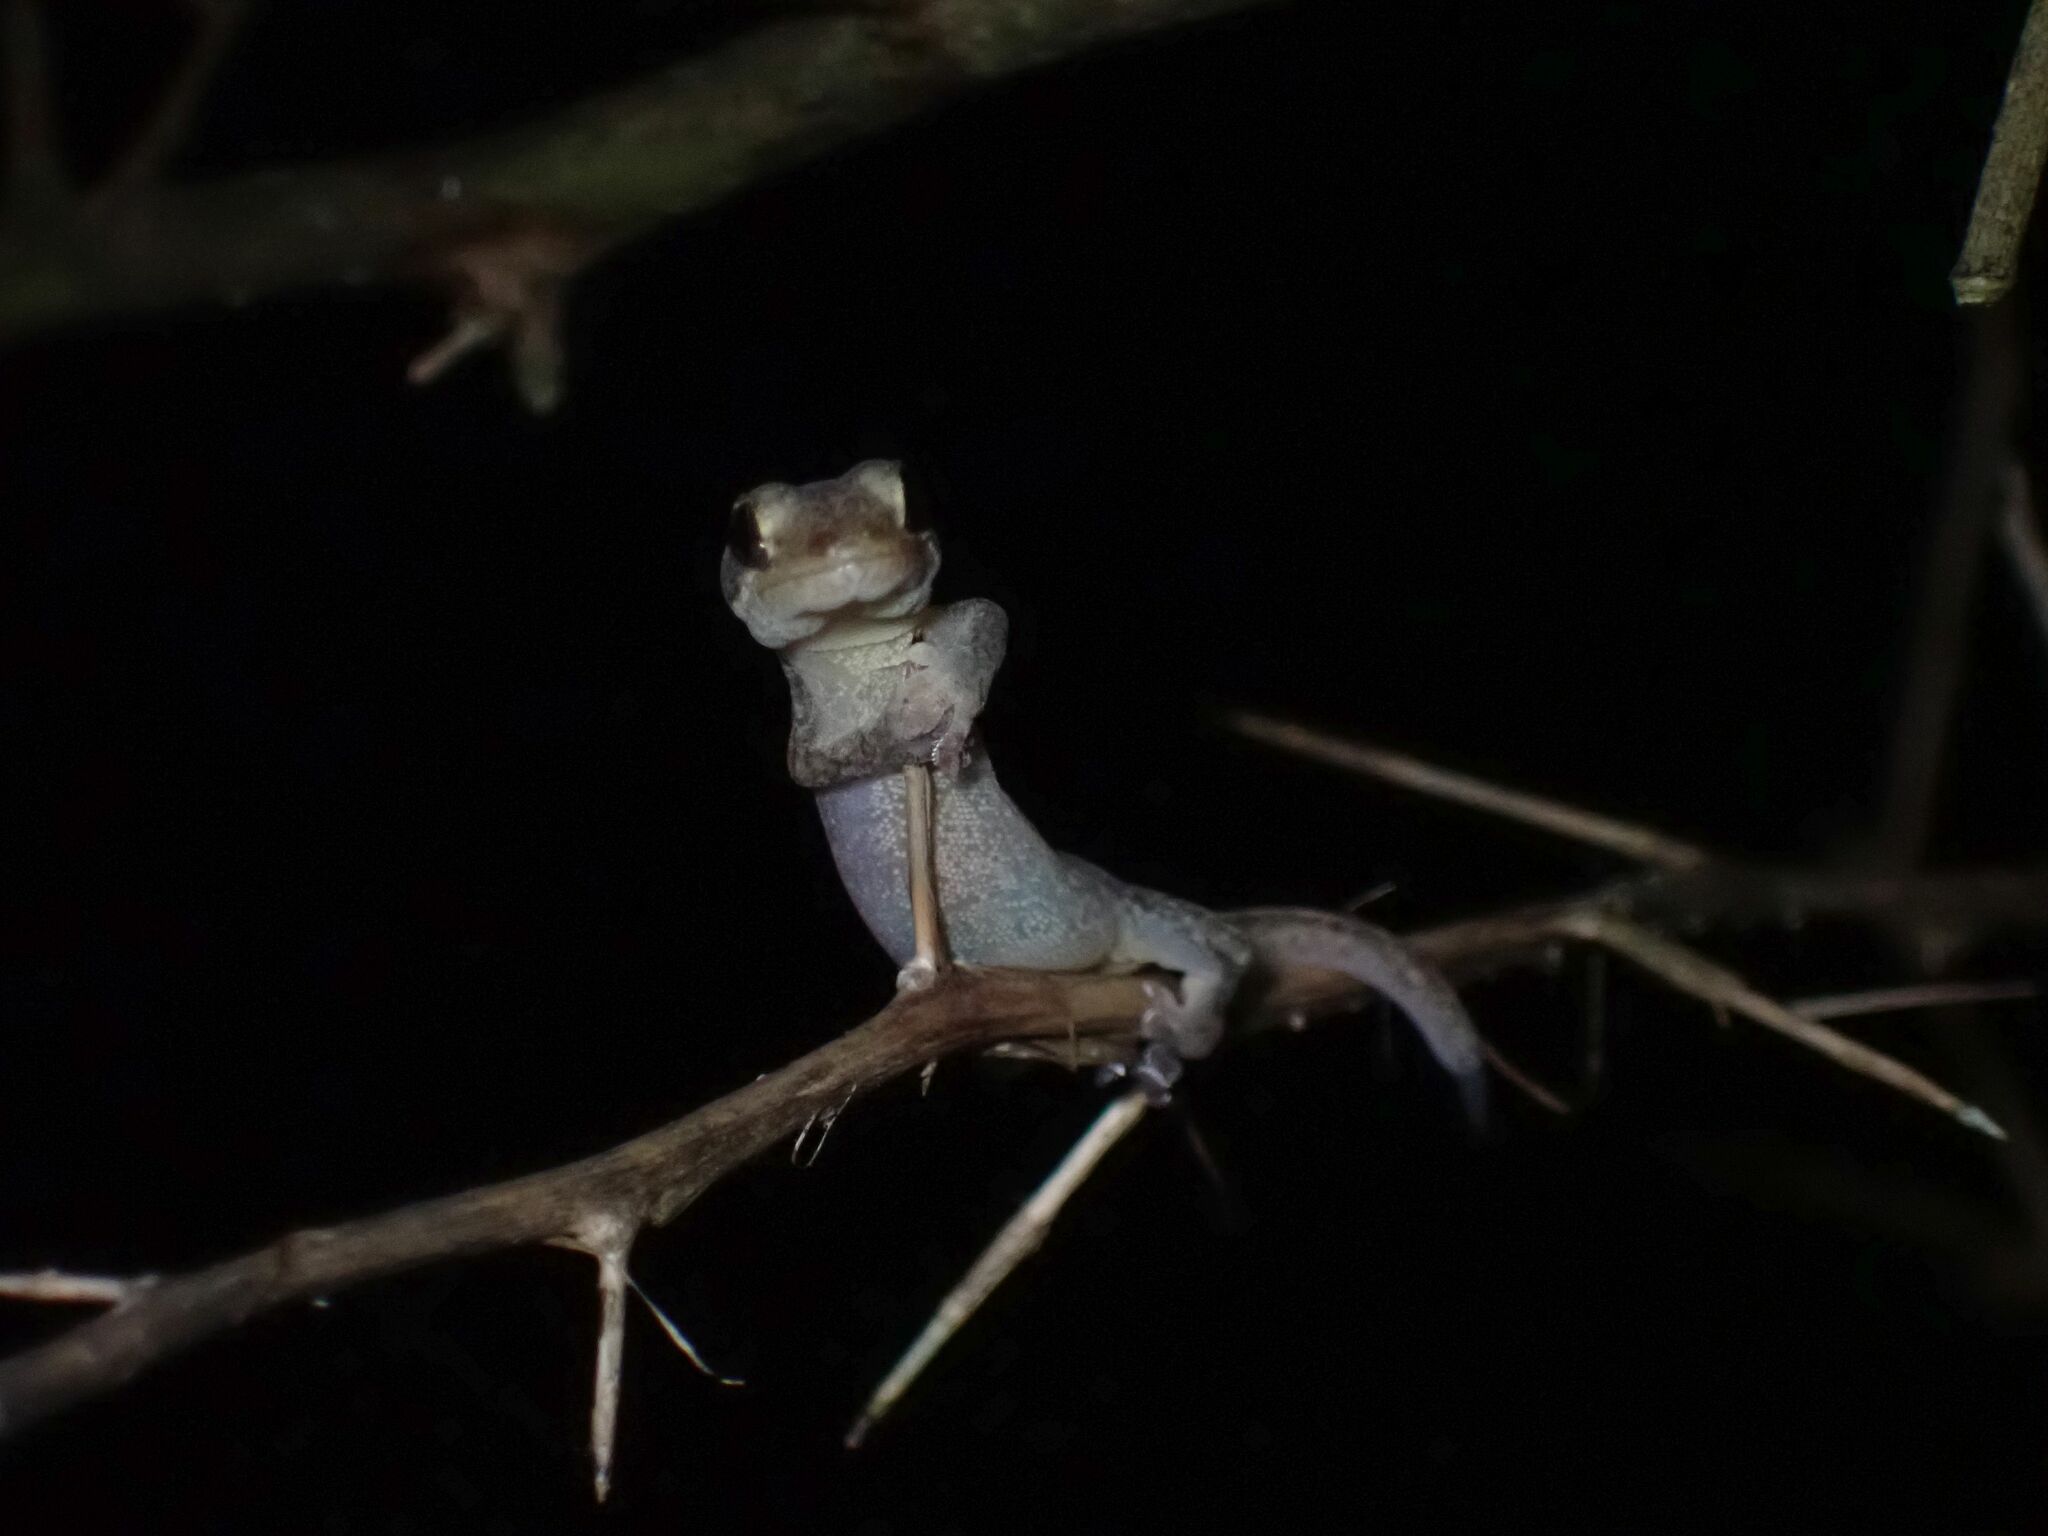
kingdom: Animalia
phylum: Chordata
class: Squamata
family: Gekkonidae
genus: Lepidodactylus
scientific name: Lepidodactylus vanuatuensis
